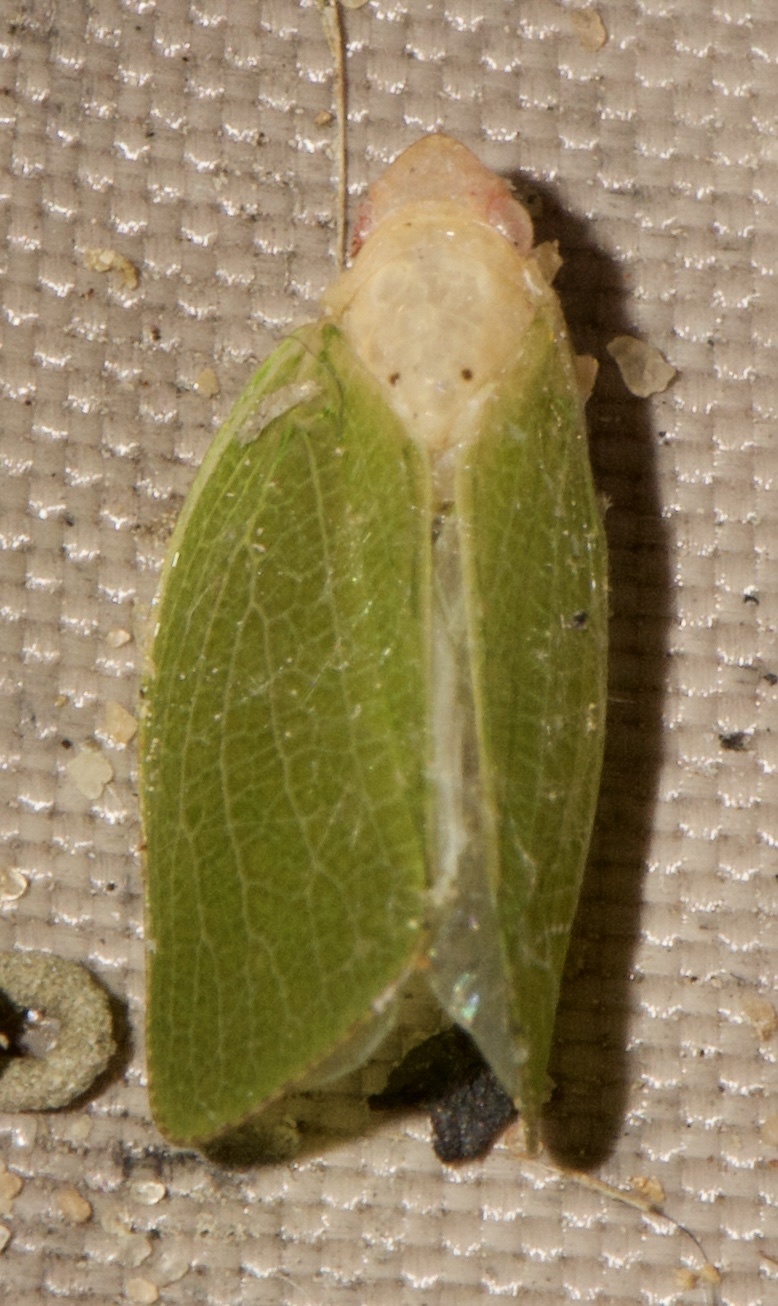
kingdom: Animalia
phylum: Arthropoda
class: Insecta
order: Hemiptera
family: Acanaloniidae
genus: Acanalonia
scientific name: Acanalonia conica
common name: Green cone-headed planthopper
